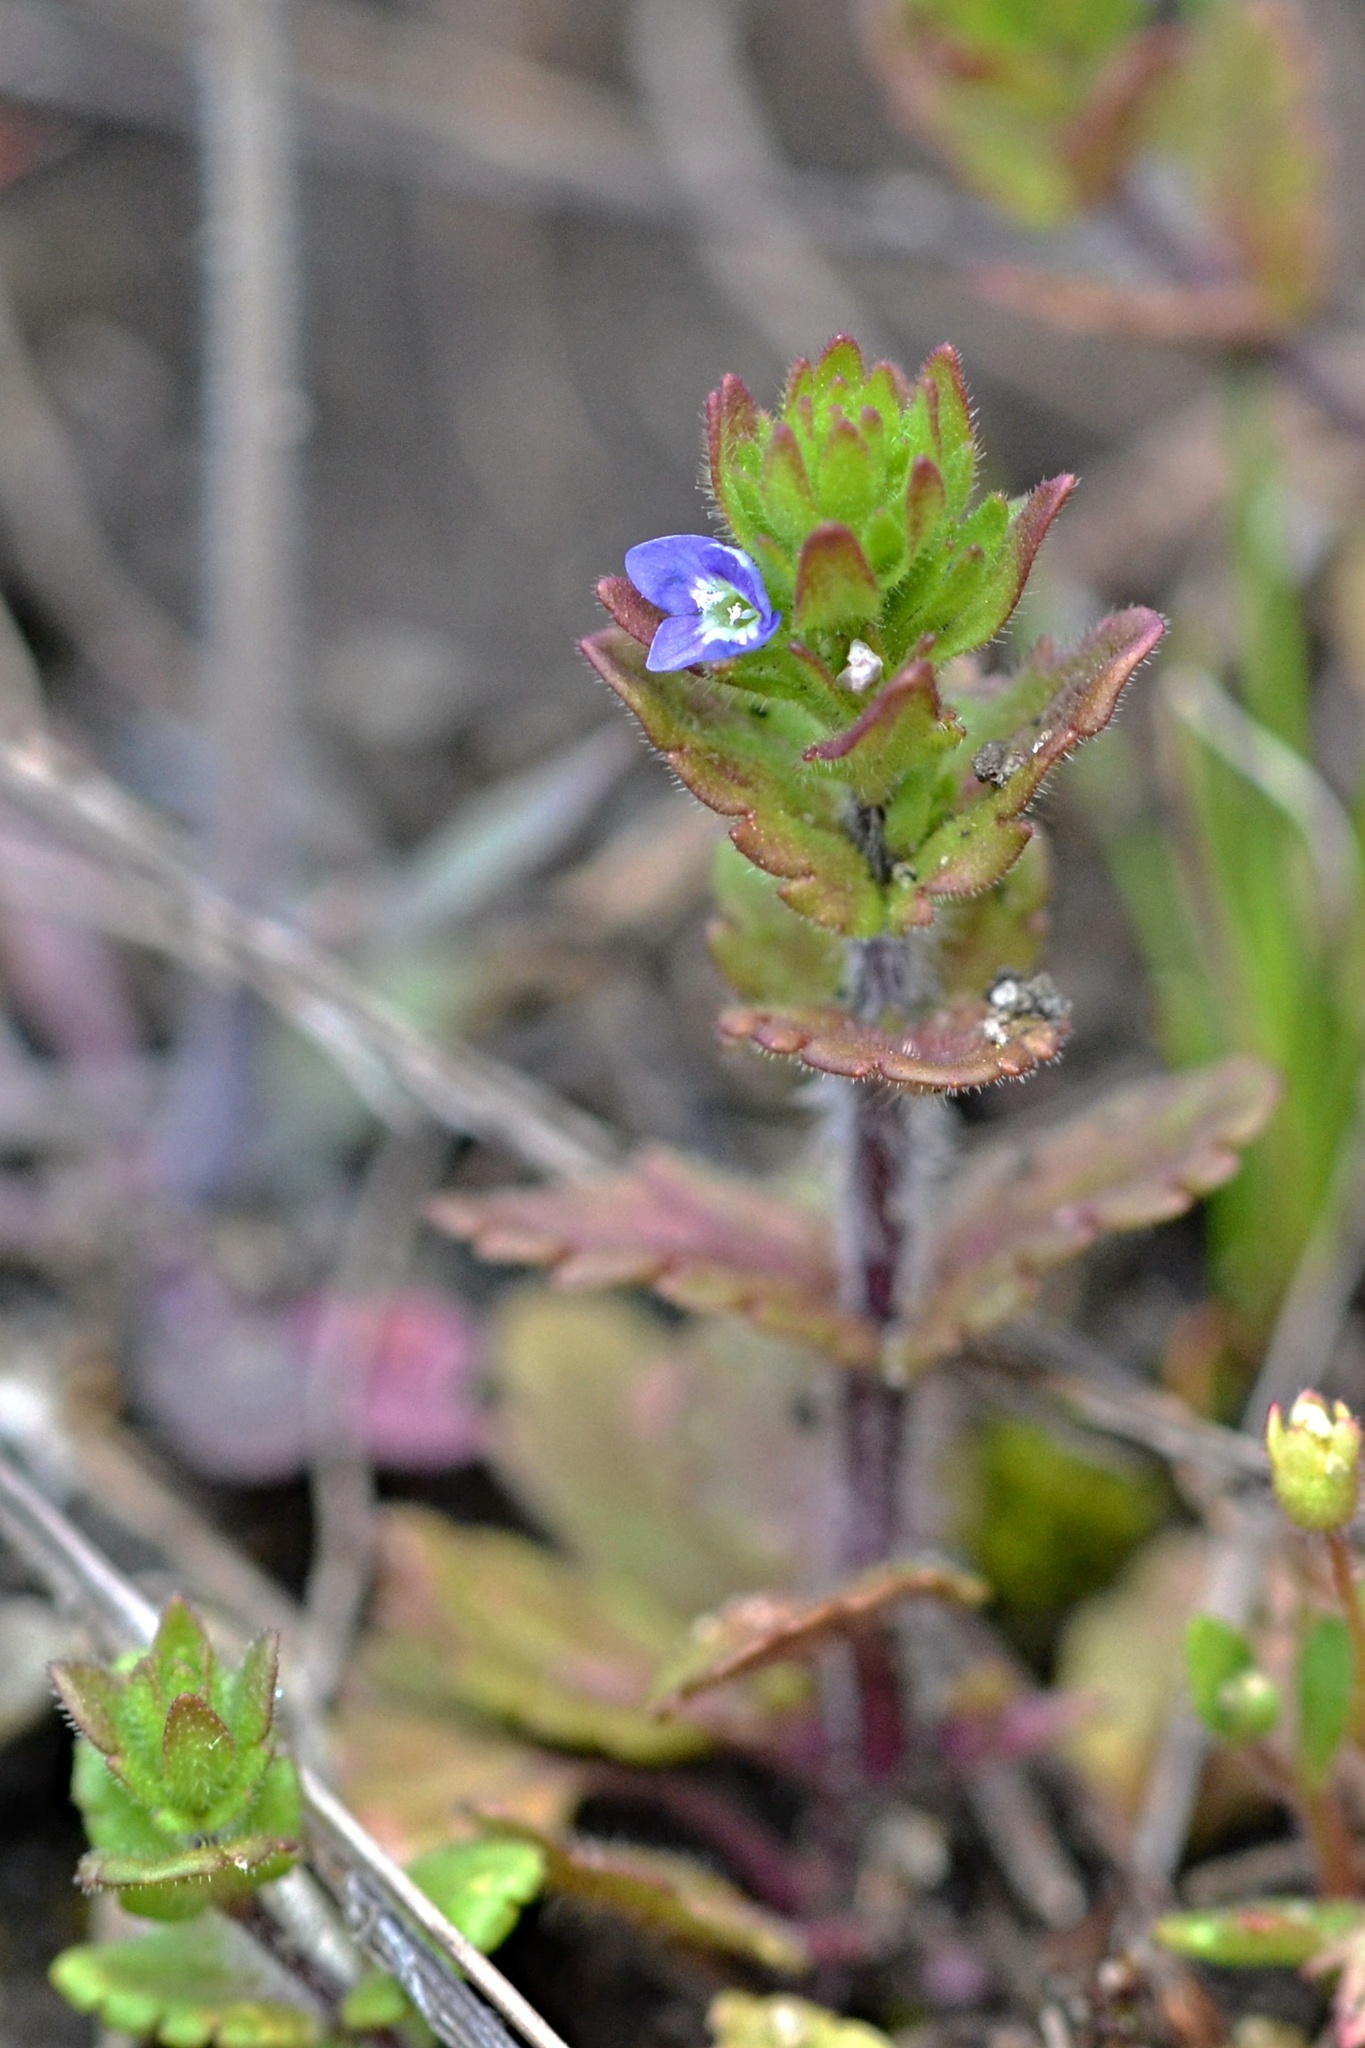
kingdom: Plantae
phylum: Tracheophyta
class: Magnoliopsida
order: Lamiales
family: Plantaginaceae
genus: Veronica
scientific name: Veronica arvensis
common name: Corn speedwell
